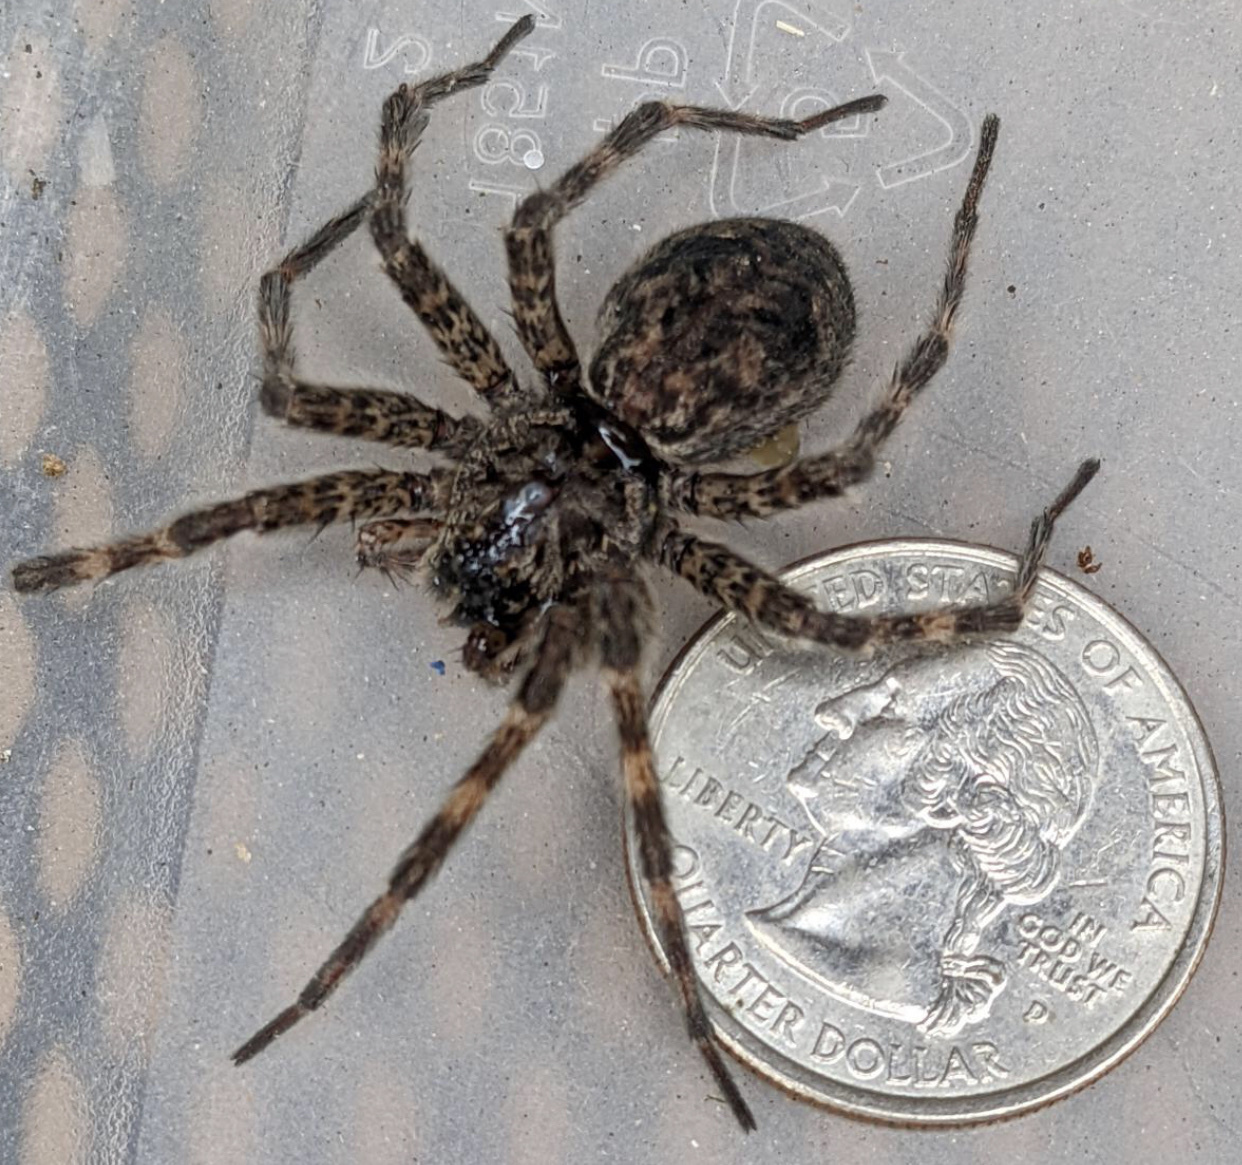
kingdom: Animalia
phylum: Arthropoda
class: Arachnida
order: Araneae
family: Pisauridae
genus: Dolomedes
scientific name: Dolomedes tenebrosus
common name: Dark fishing spider
